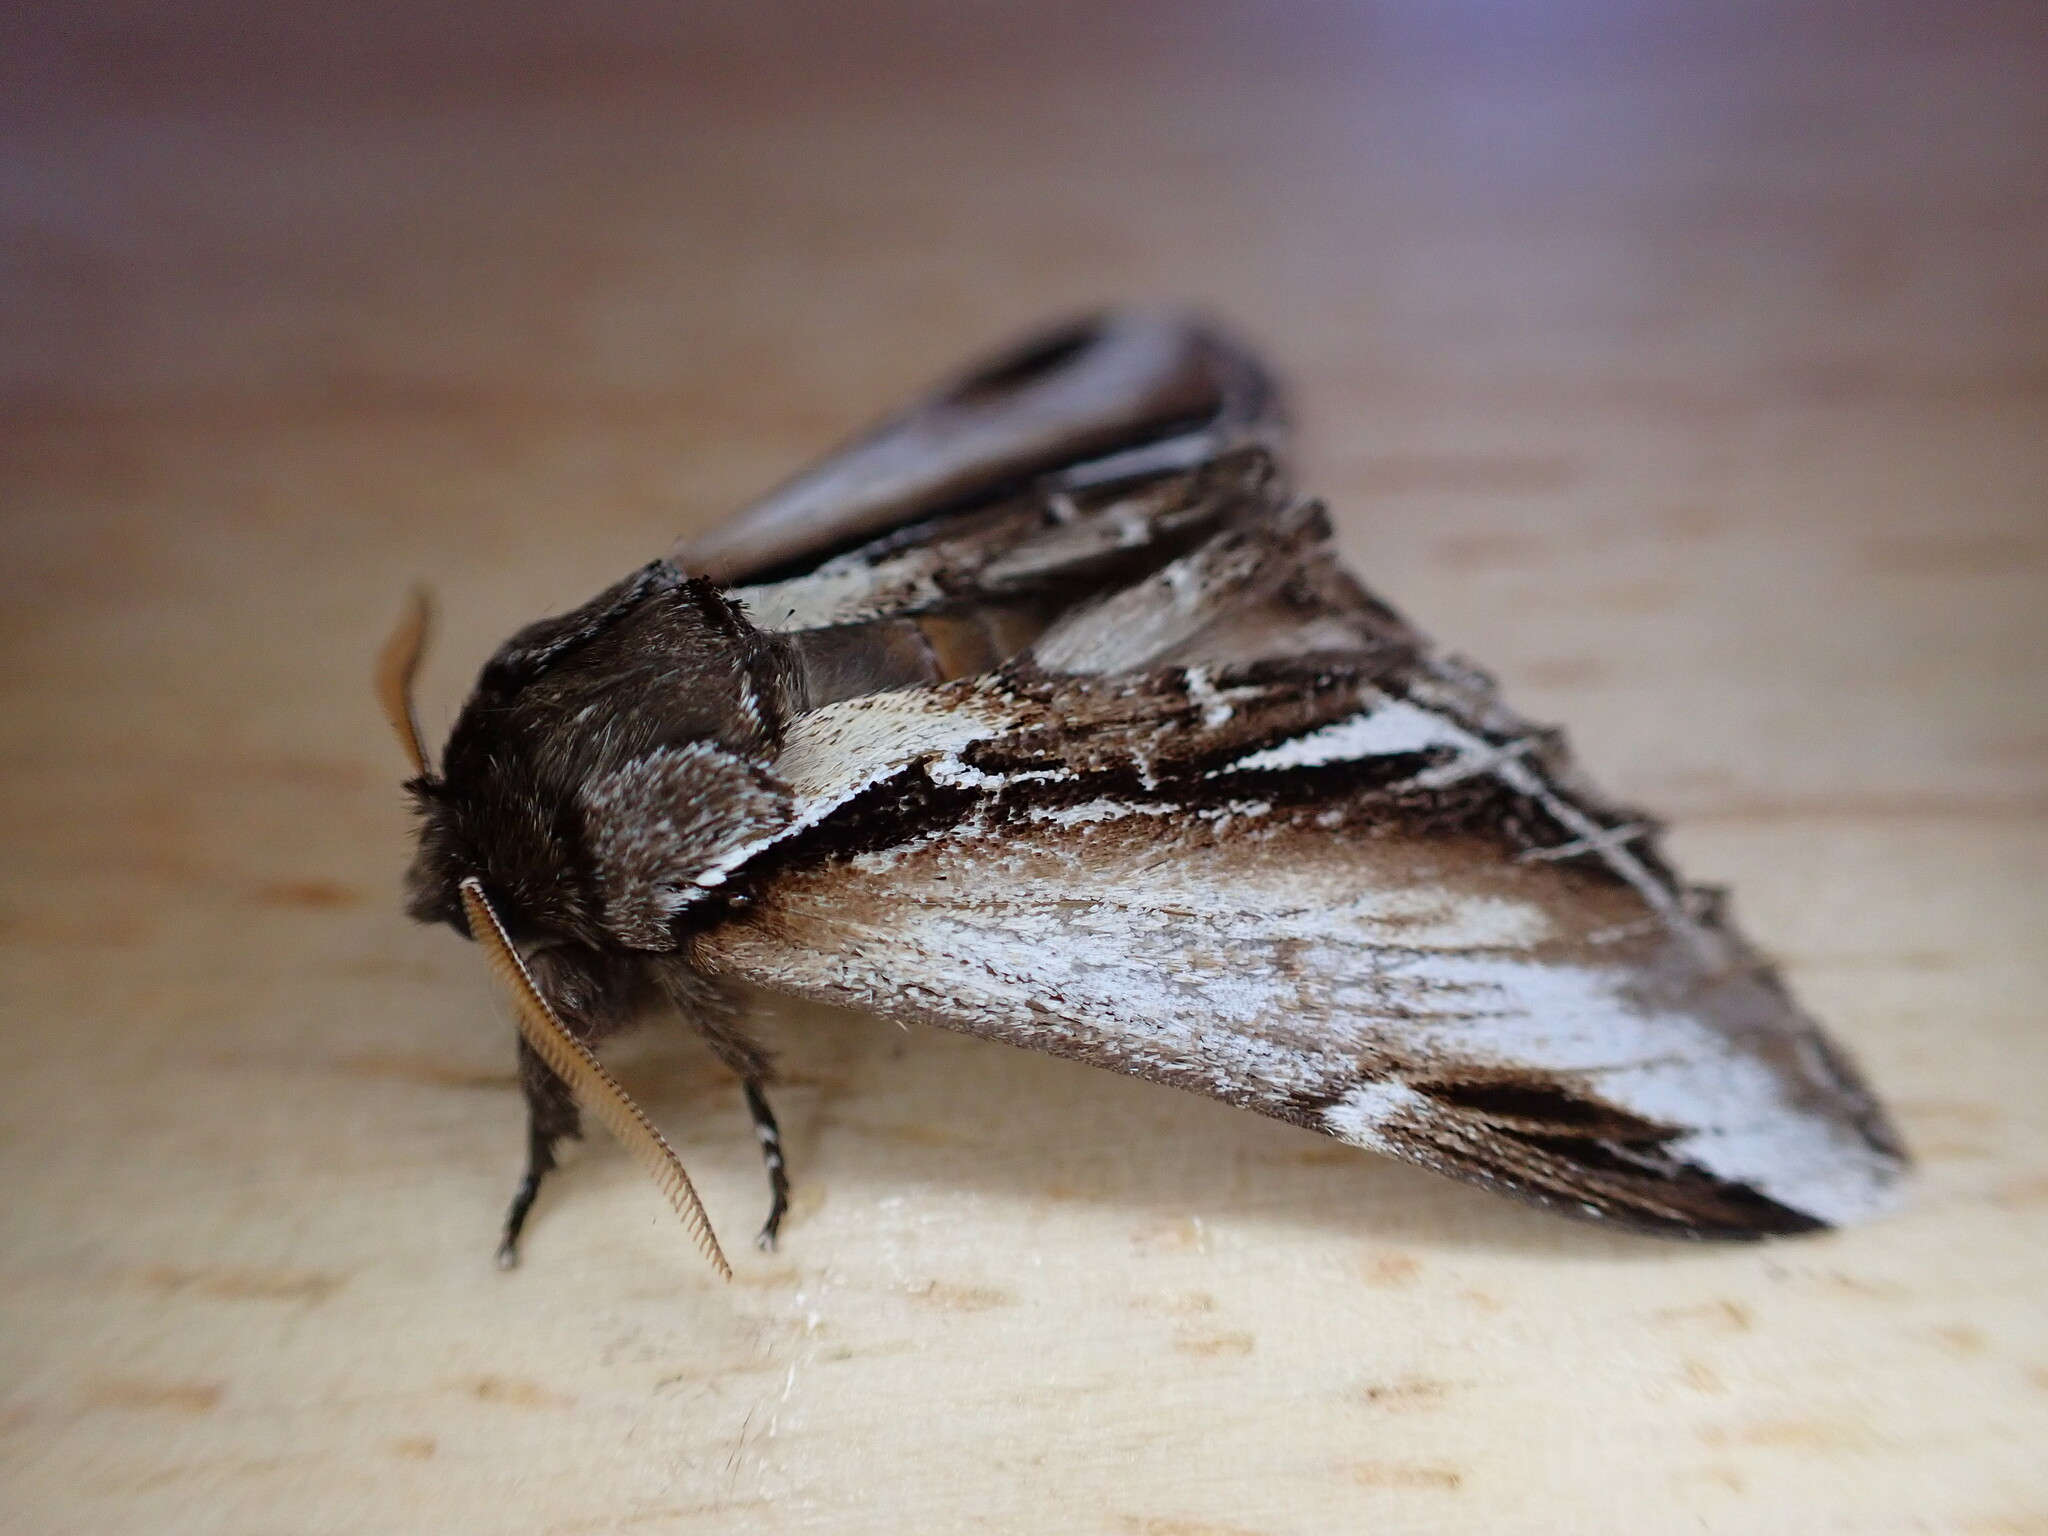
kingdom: Animalia
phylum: Arthropoda
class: Insecta
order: Lepidoptera
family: Notodontidae
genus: Pheosia
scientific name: Pheosia gnoma
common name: Lesser swallow prominent
